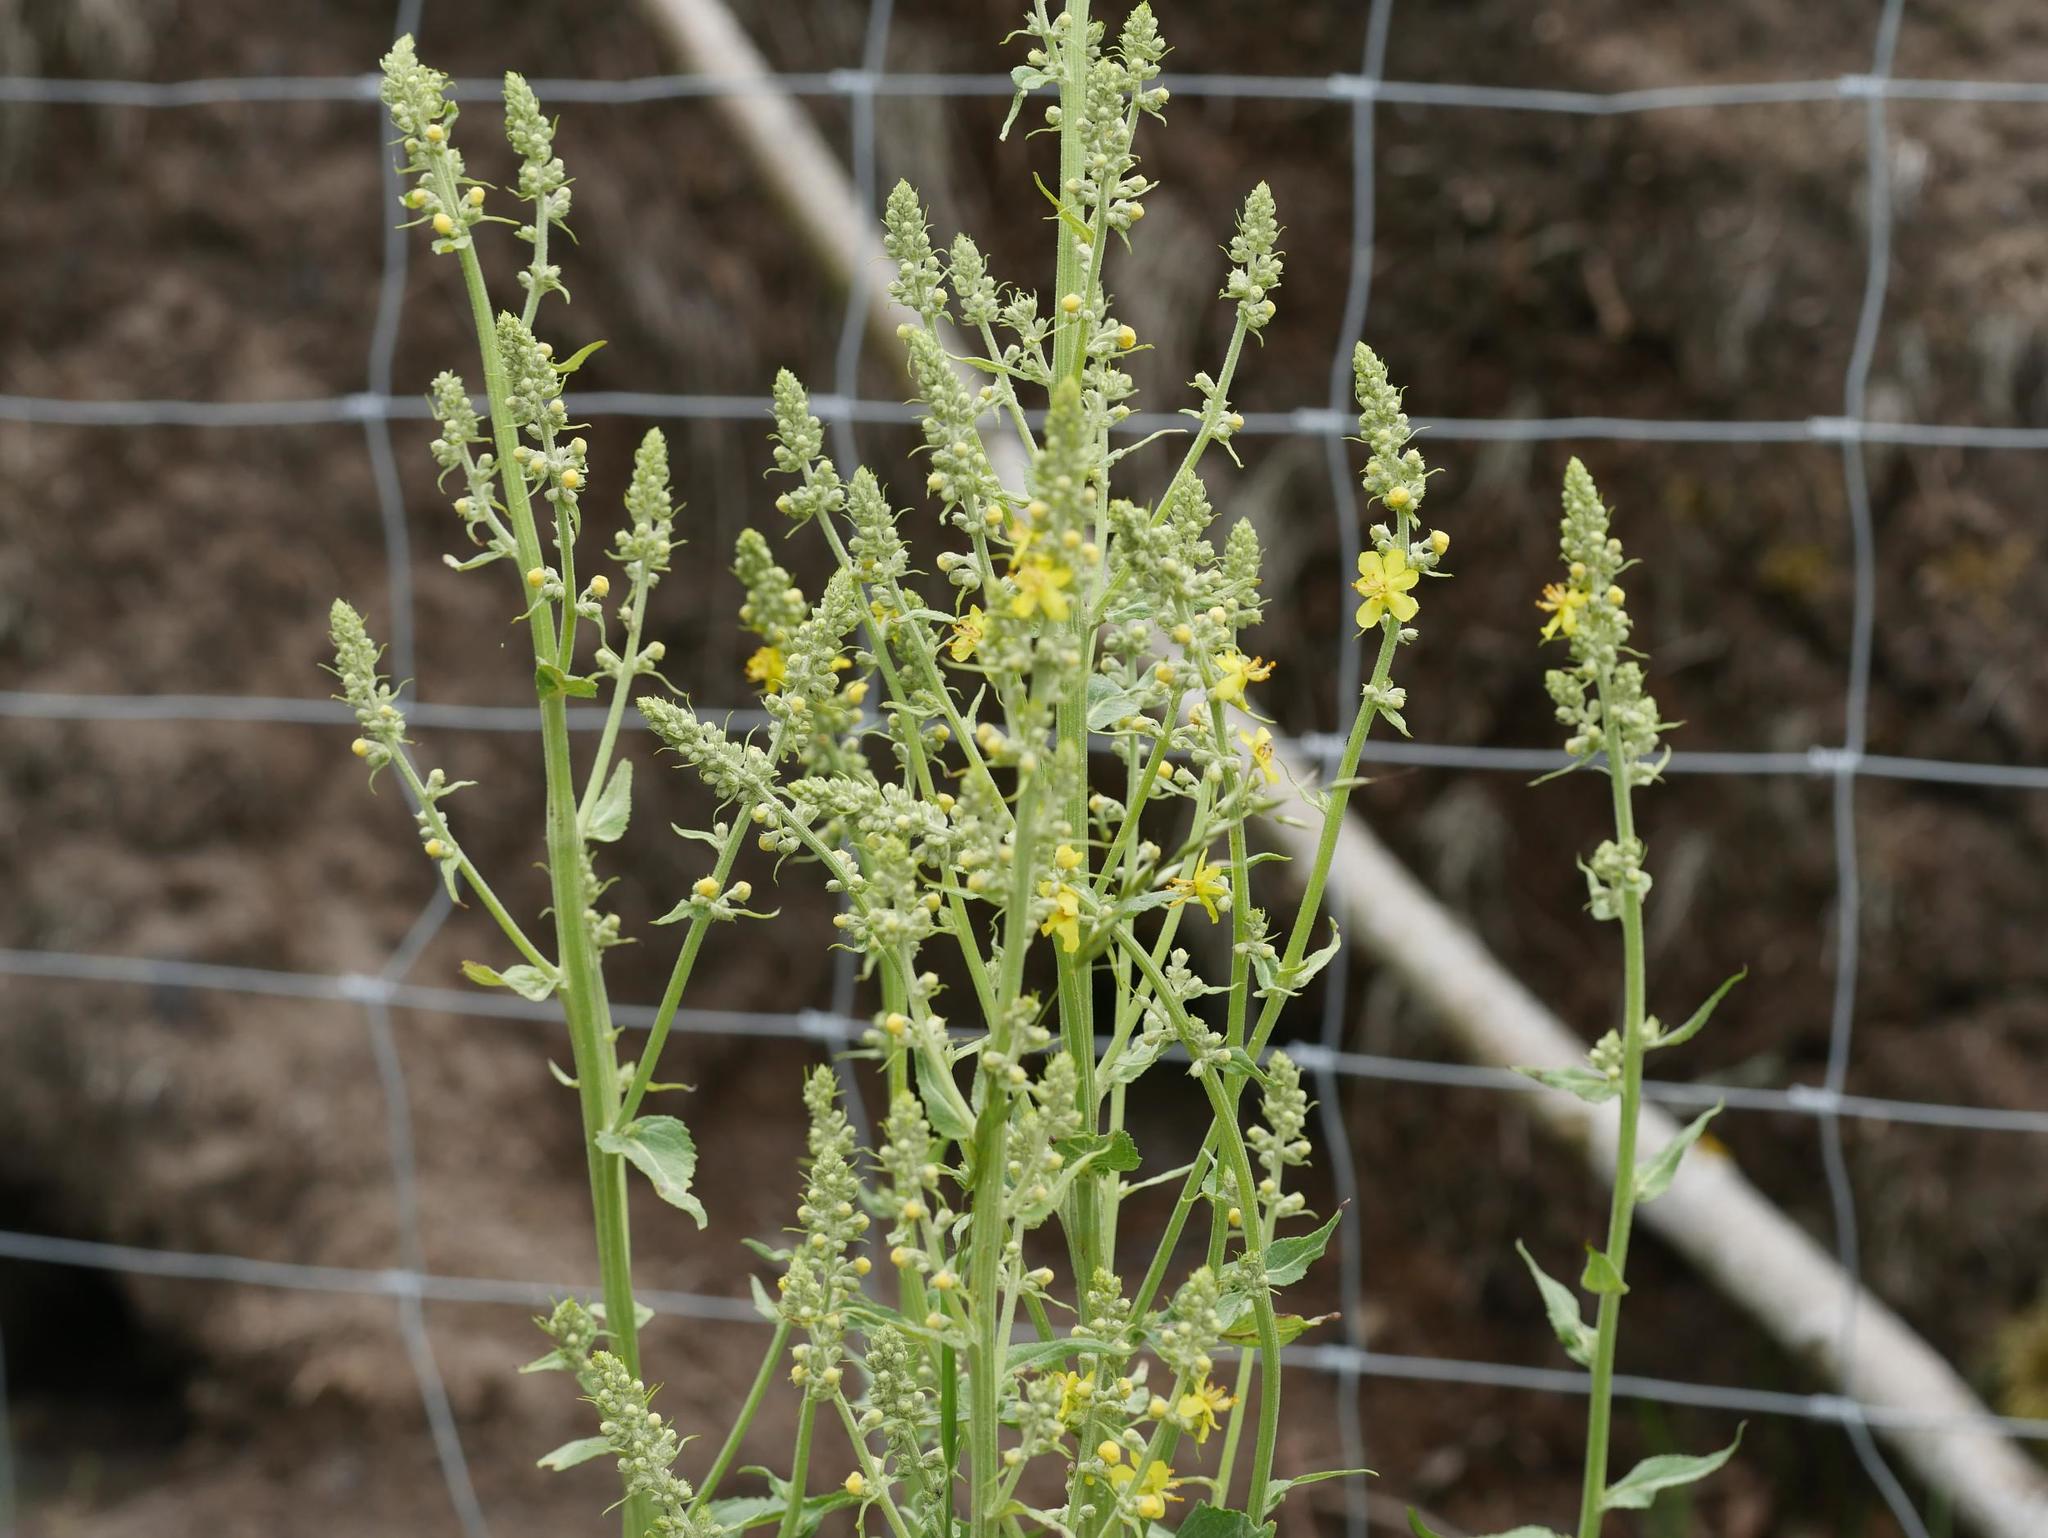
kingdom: Plantae
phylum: Tracheophyta
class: Magnoliopsida
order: Lamiales
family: Scrophulariaceae
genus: Verbascum
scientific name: Verbascum lychnitis
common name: White mullein
